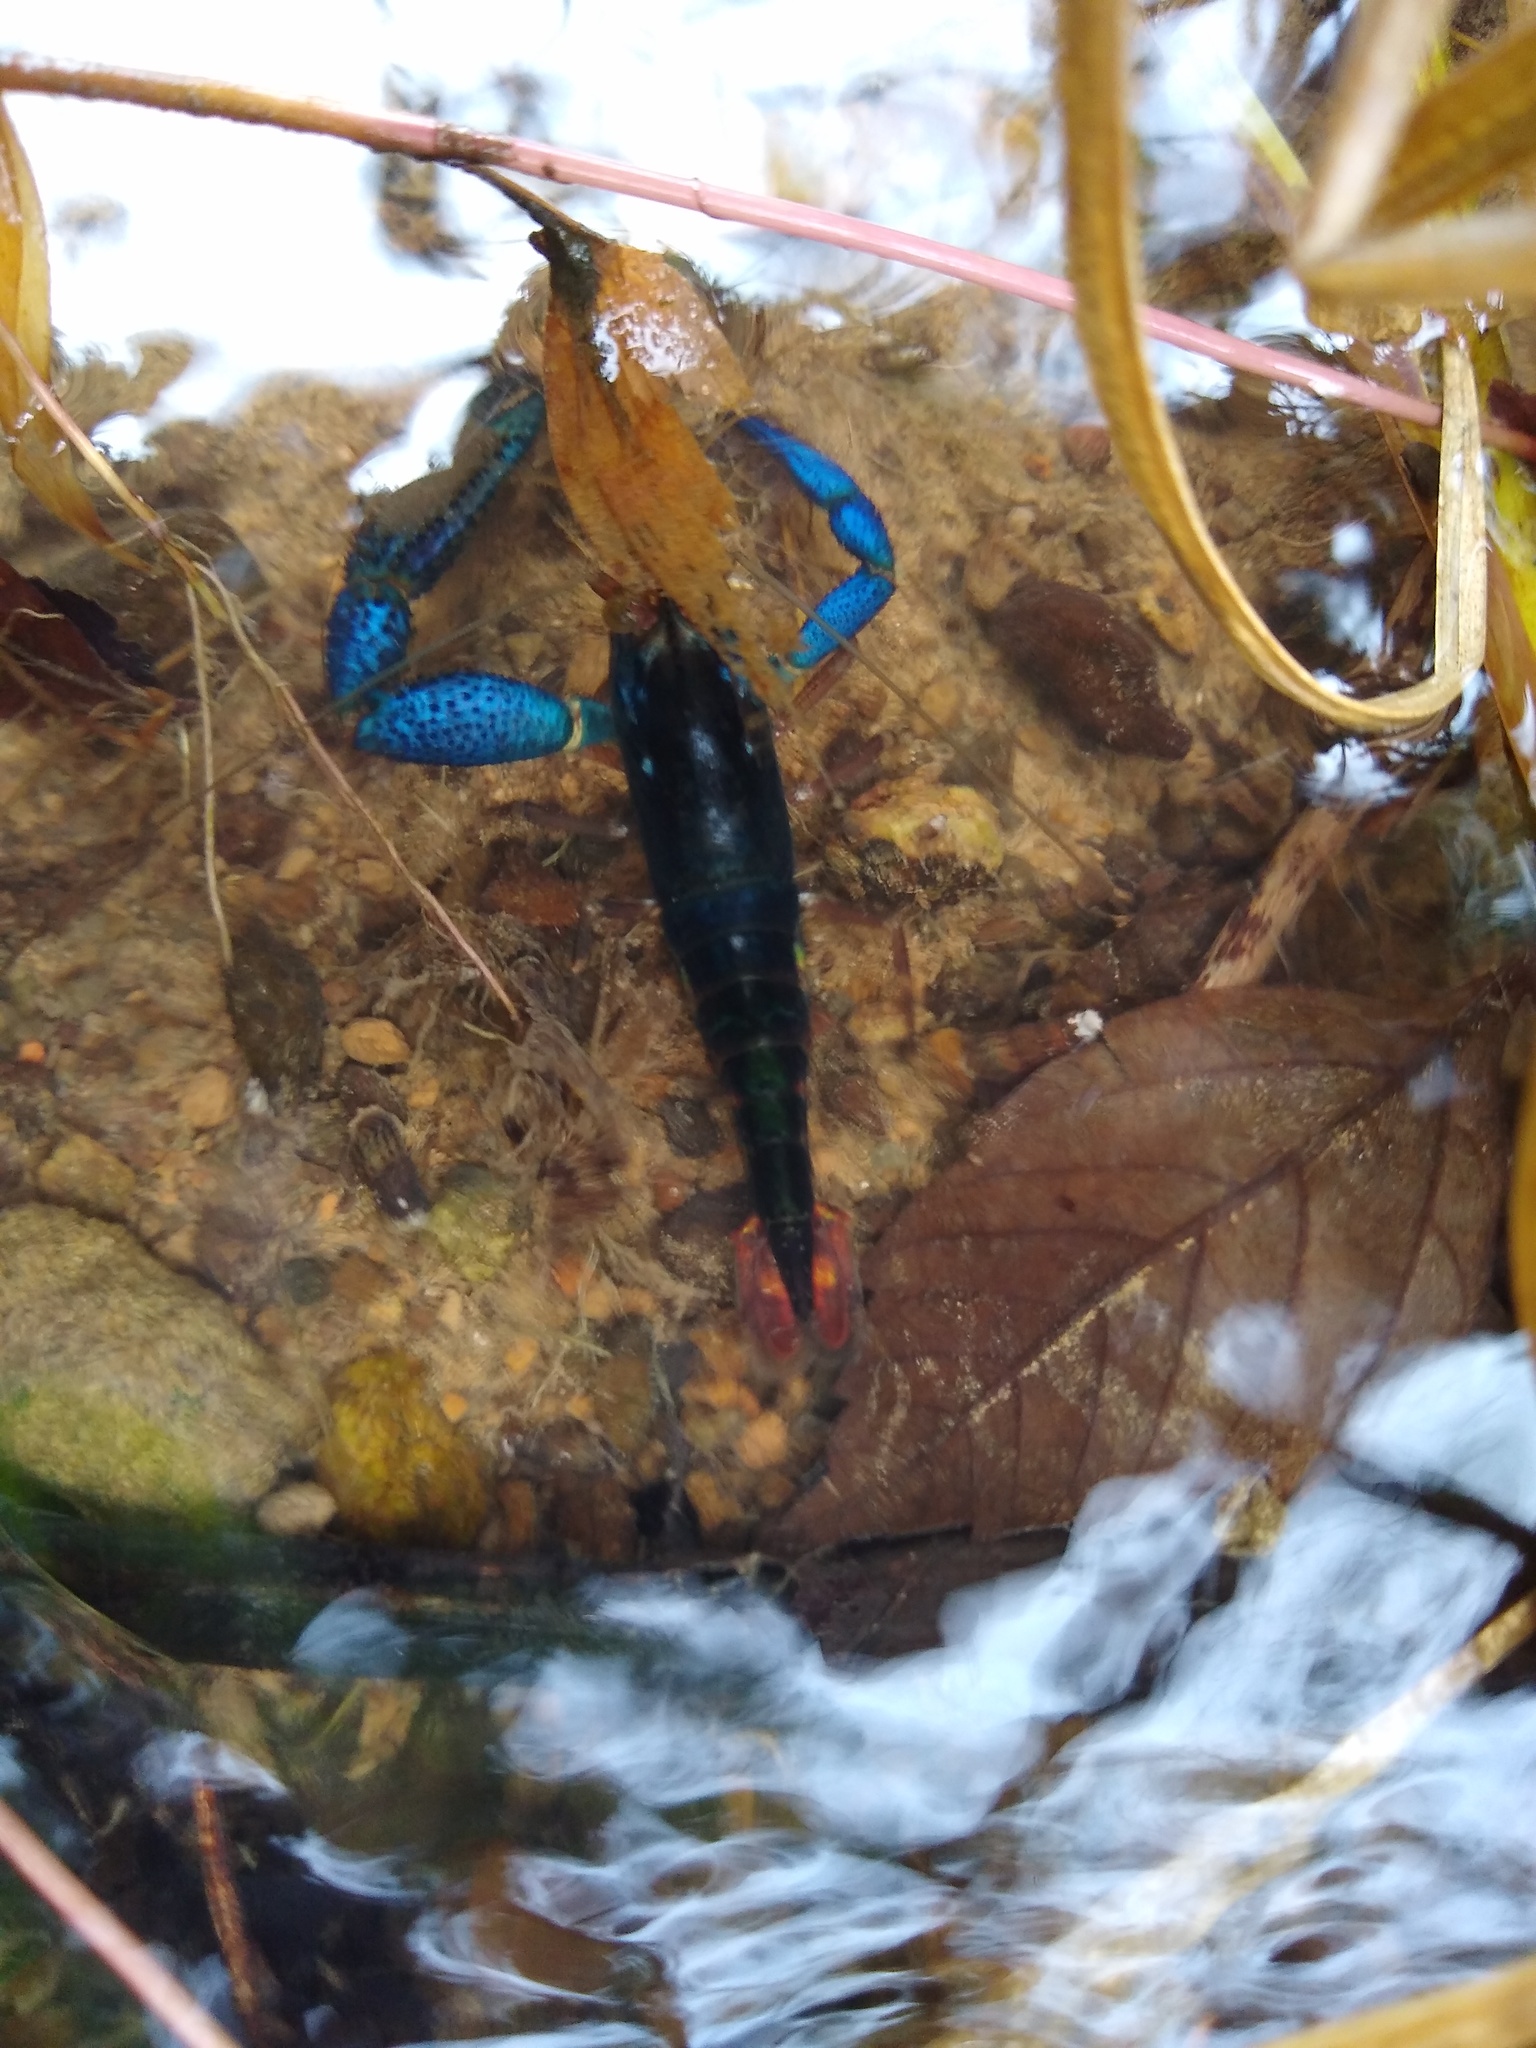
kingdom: Animalia
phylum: Arthropoda
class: Malacostraca
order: Decapoda
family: Palaemonidae
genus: Macrobrachium
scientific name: Macrobrachium hancocki
